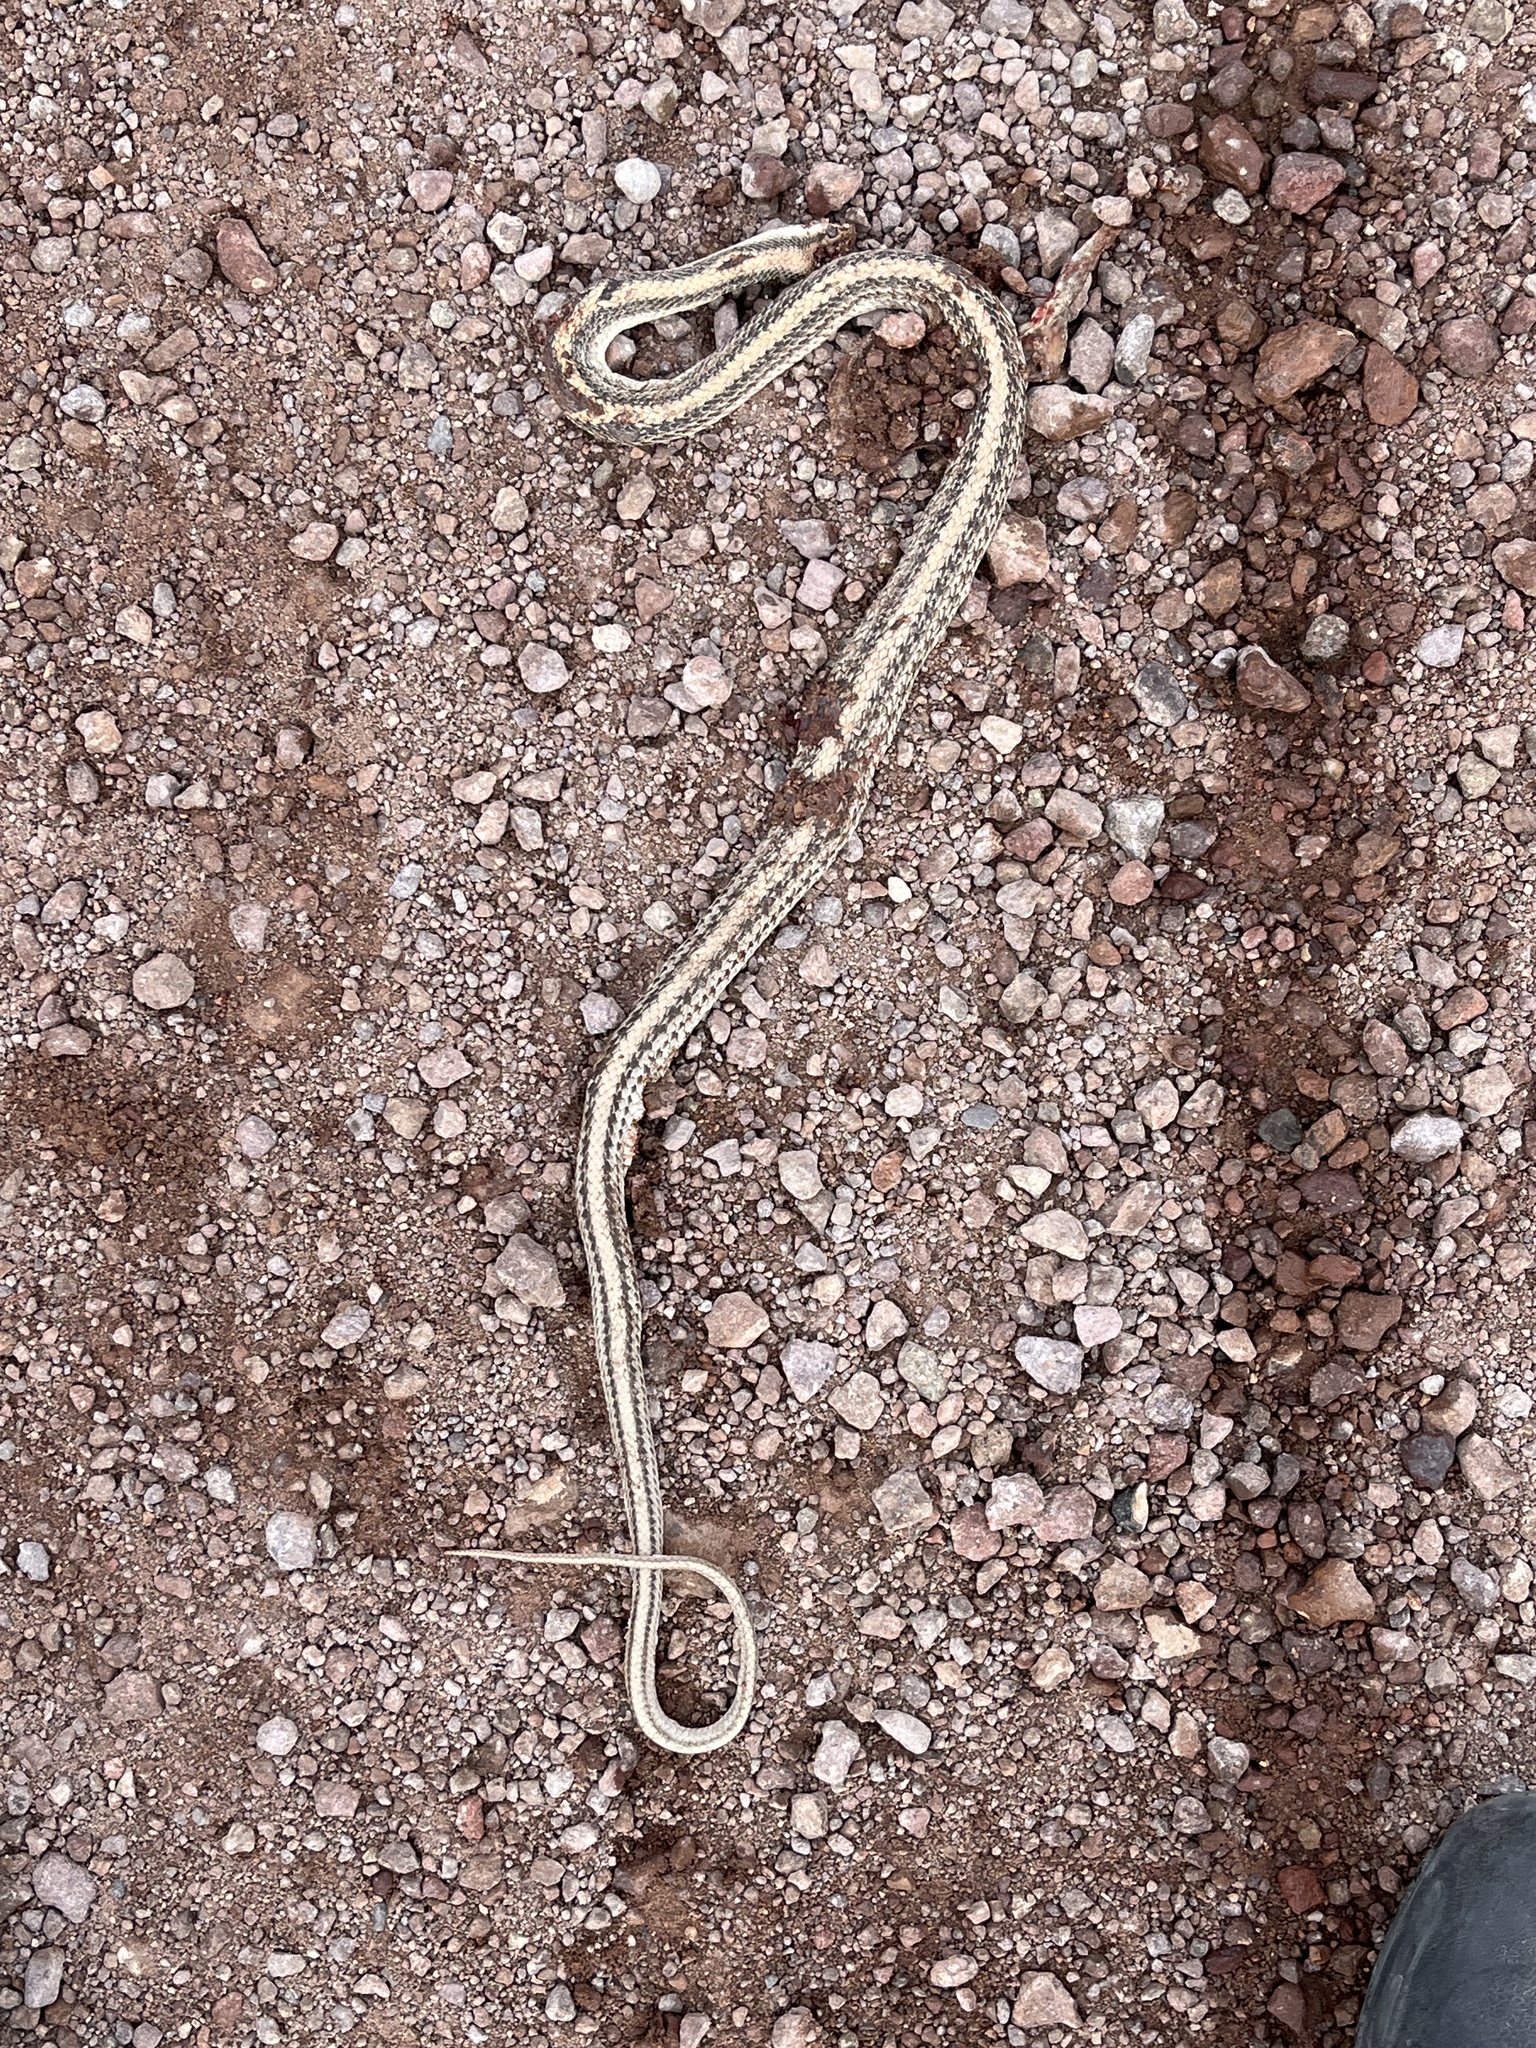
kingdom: Animalia
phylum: Chordata
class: Squamata
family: Colubridae
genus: Salvadora
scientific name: Salvadora hexalepis
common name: Western patchnose snake
